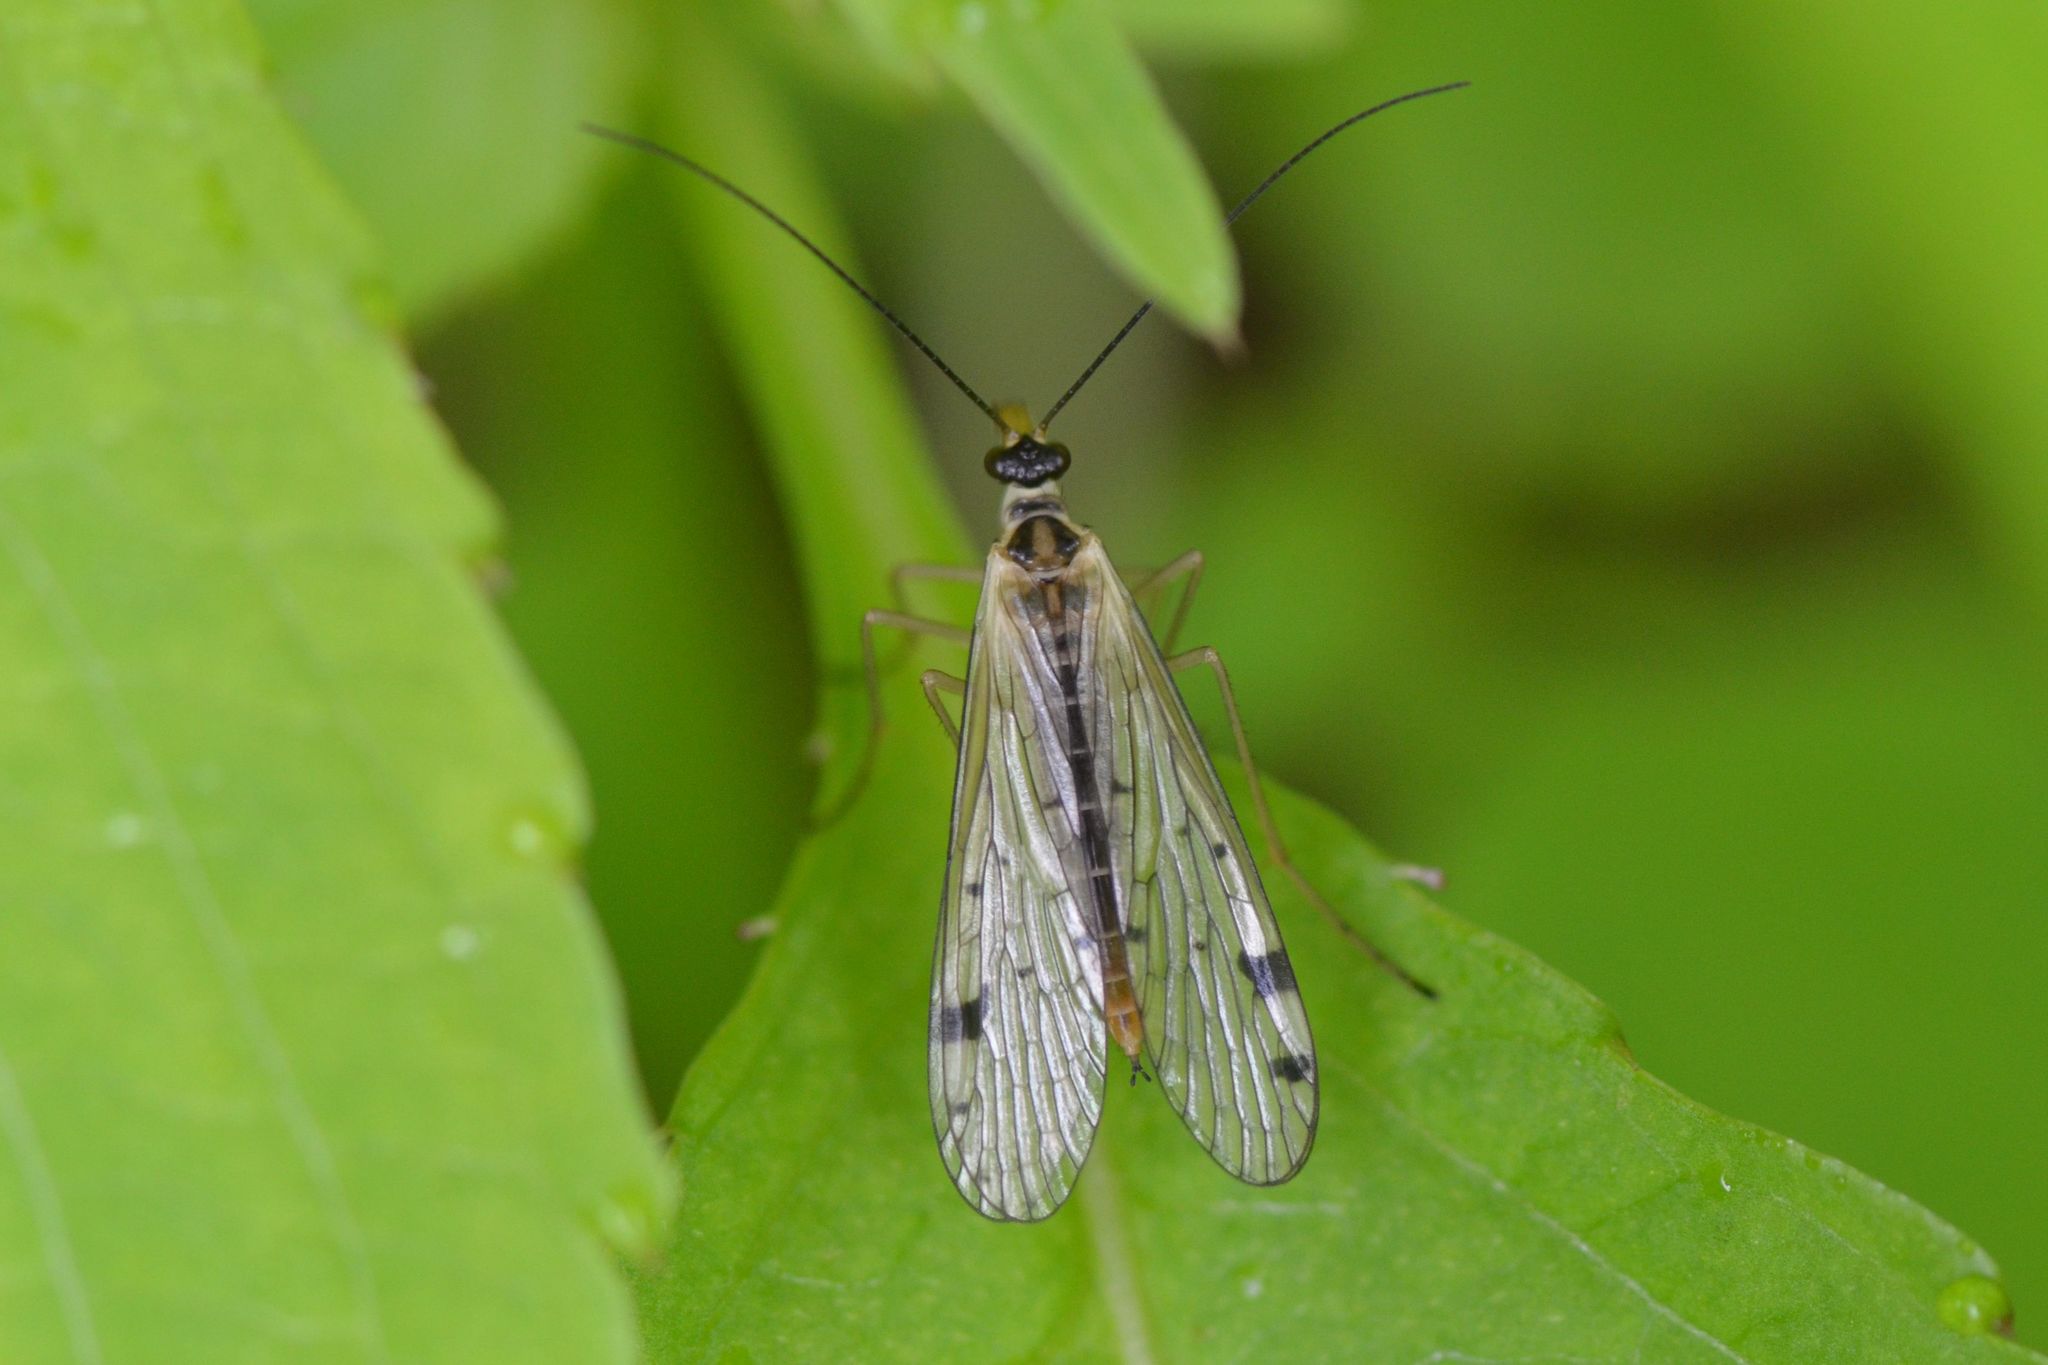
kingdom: Animalia
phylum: Arthropoda
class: Insecta
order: Mecoptera
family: Panorpidae
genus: Panorpa
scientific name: Panorpa alpina
